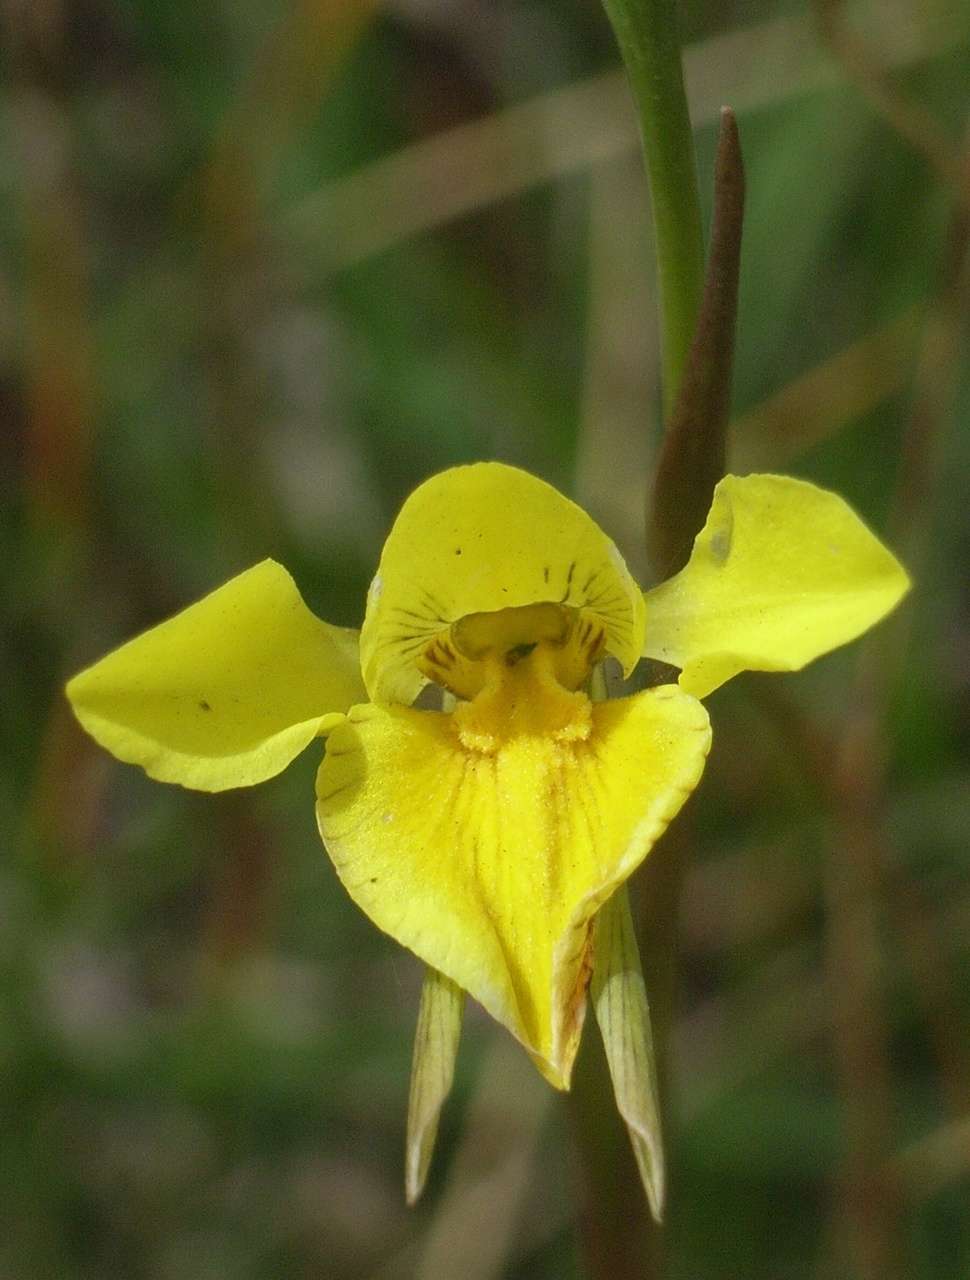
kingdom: Plantae
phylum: Tracheophyta
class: Liliopsida
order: Asparagales
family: Orchidaceae
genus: Diuris
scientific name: Diuris chryseopsis
